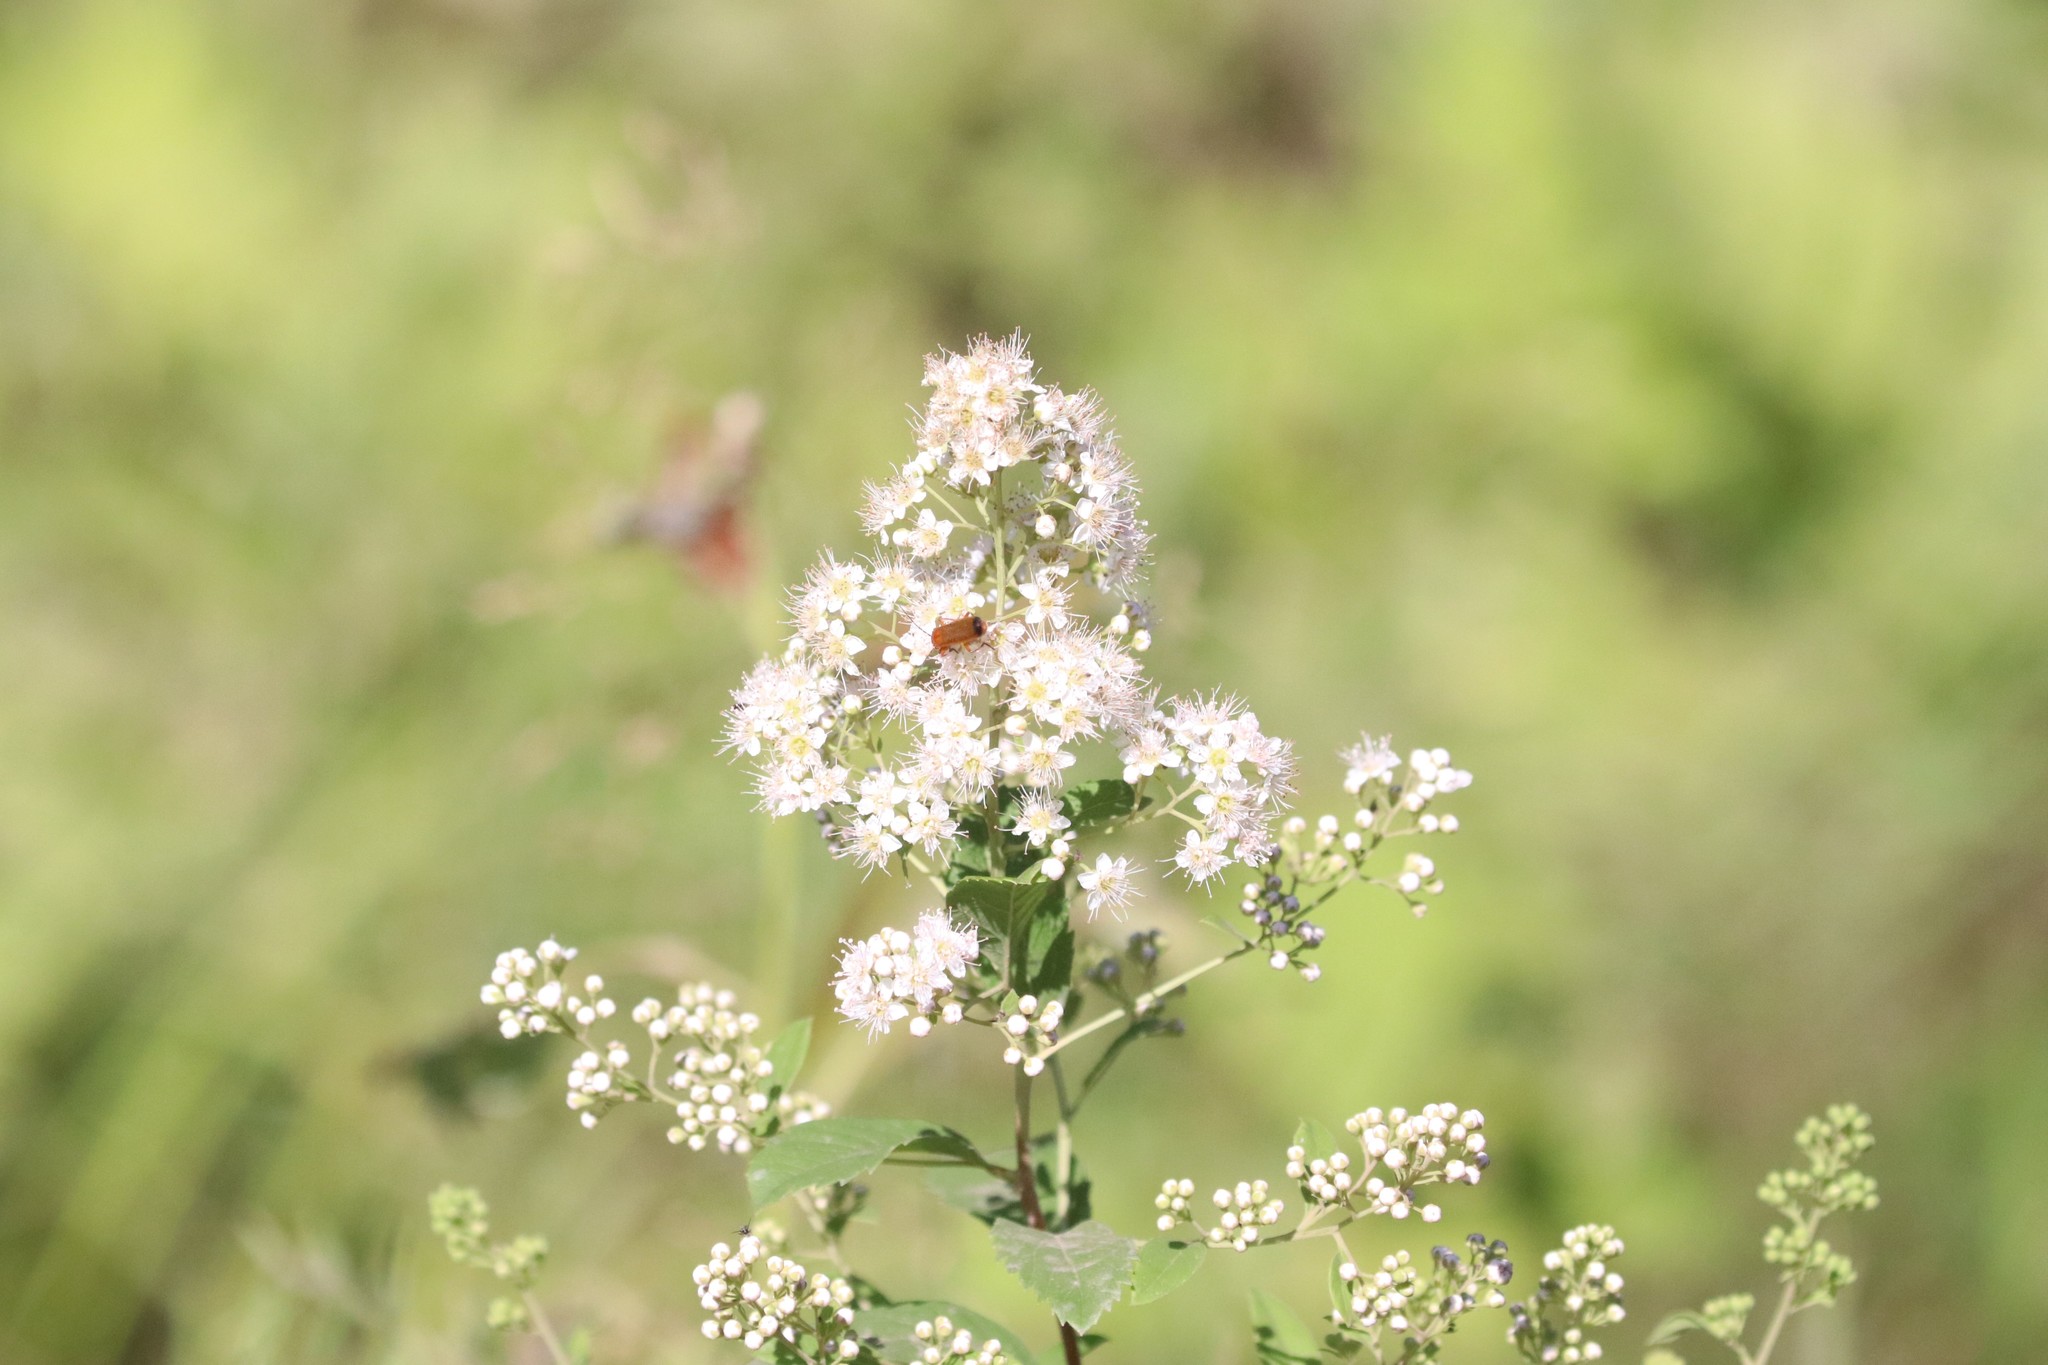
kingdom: Plantae
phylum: Tracheophyta
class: Magnoliopsida
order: Rosales
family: Rosaceae
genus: Spiraea
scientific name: Spiraea alba
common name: Pale bridewort
